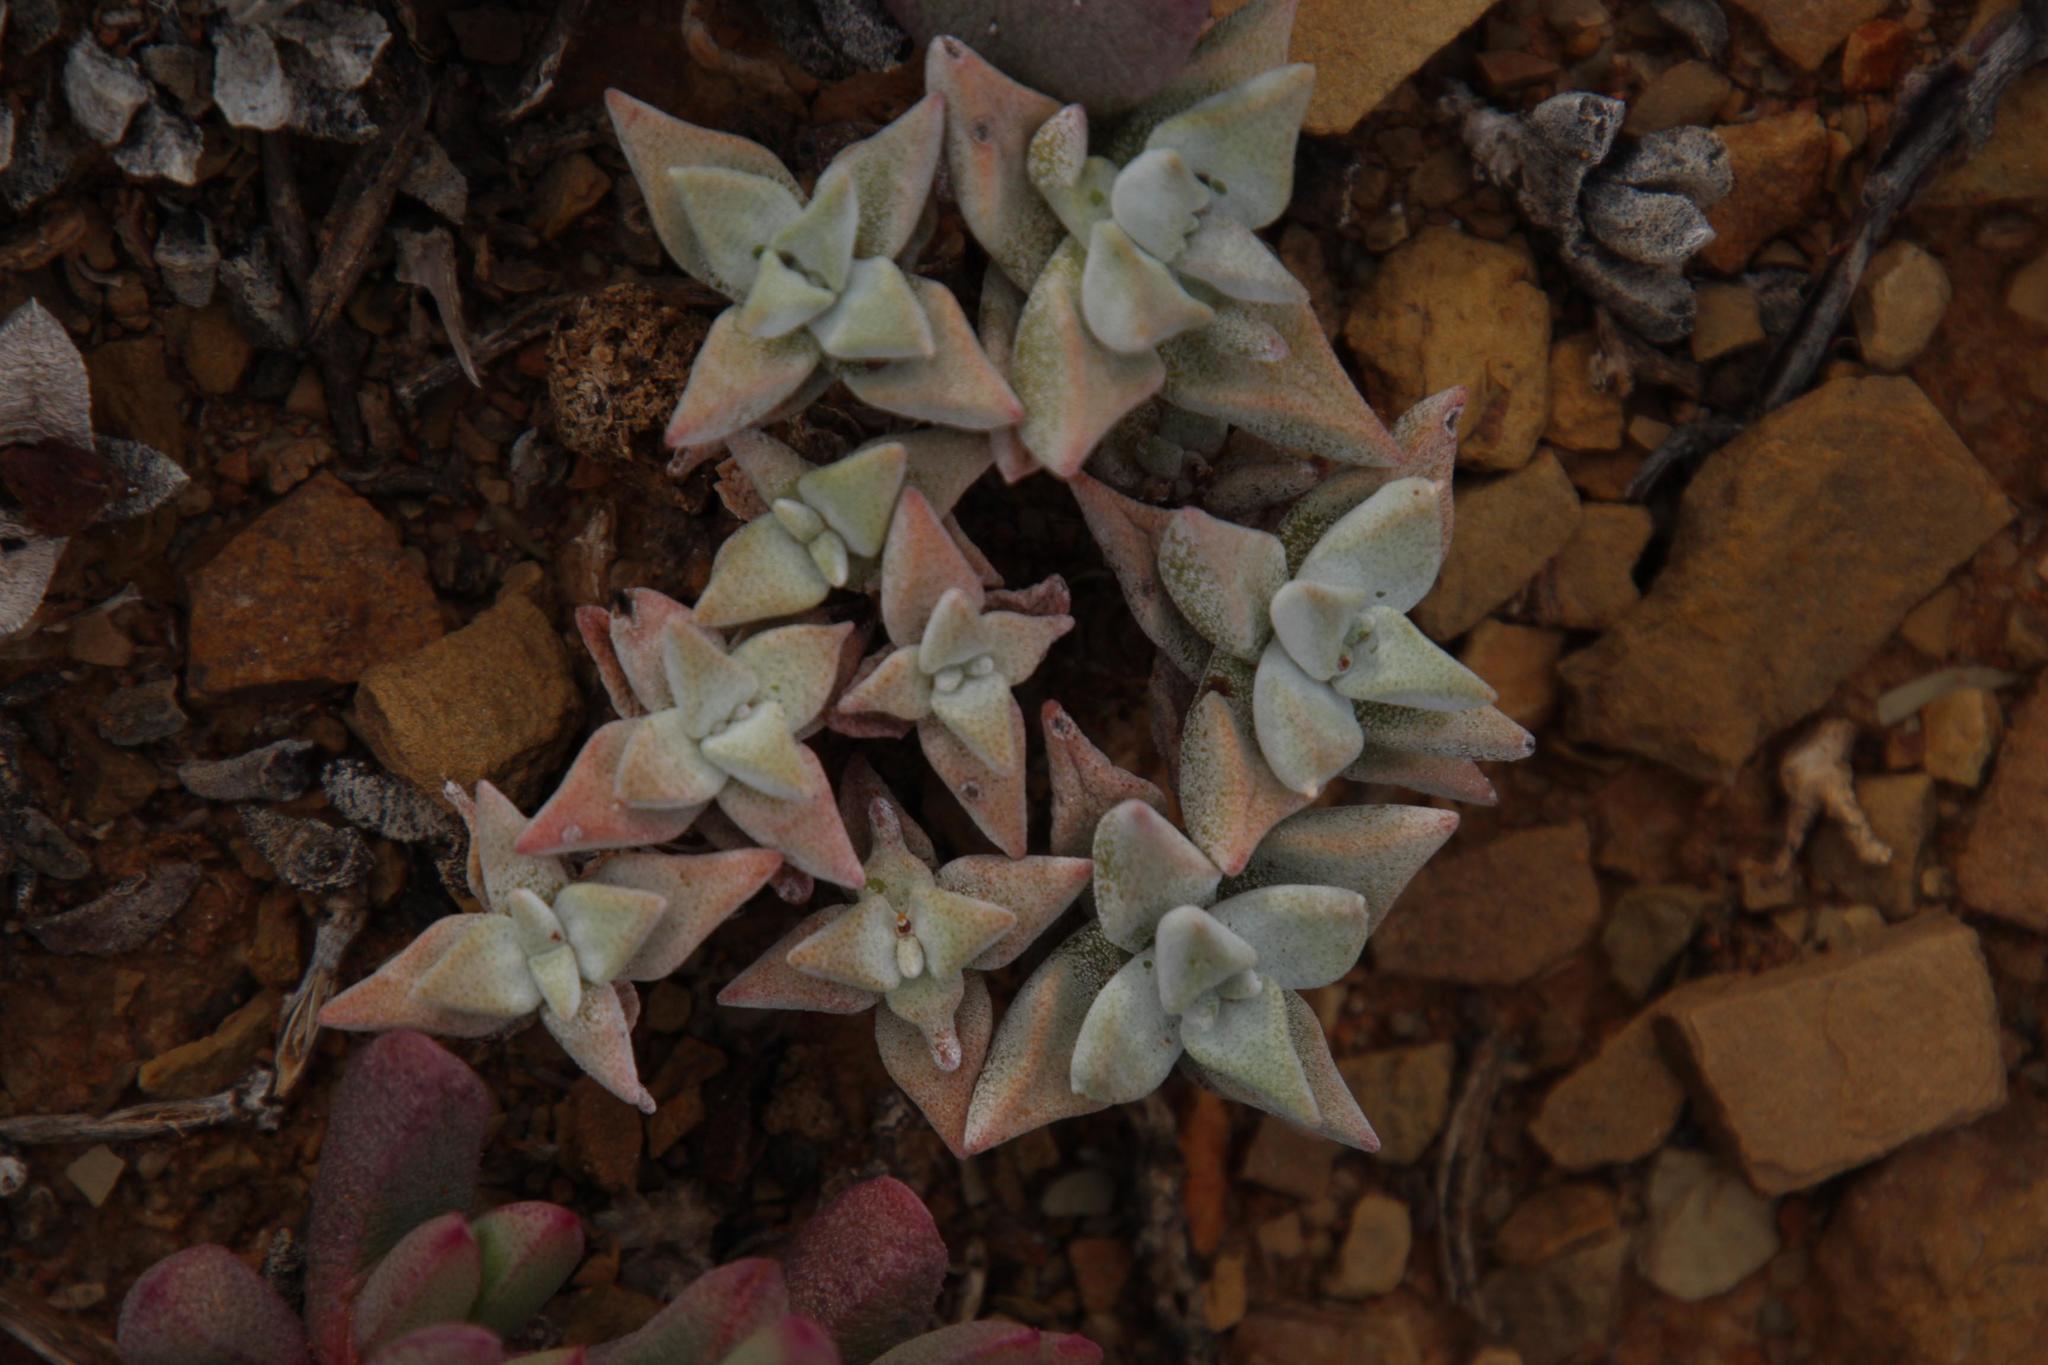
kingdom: Plantae
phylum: Tracheophyta
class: Magnoliopsida
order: Saxifragales
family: Crassulaceae
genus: Crassula
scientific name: Crassula deltoidea
